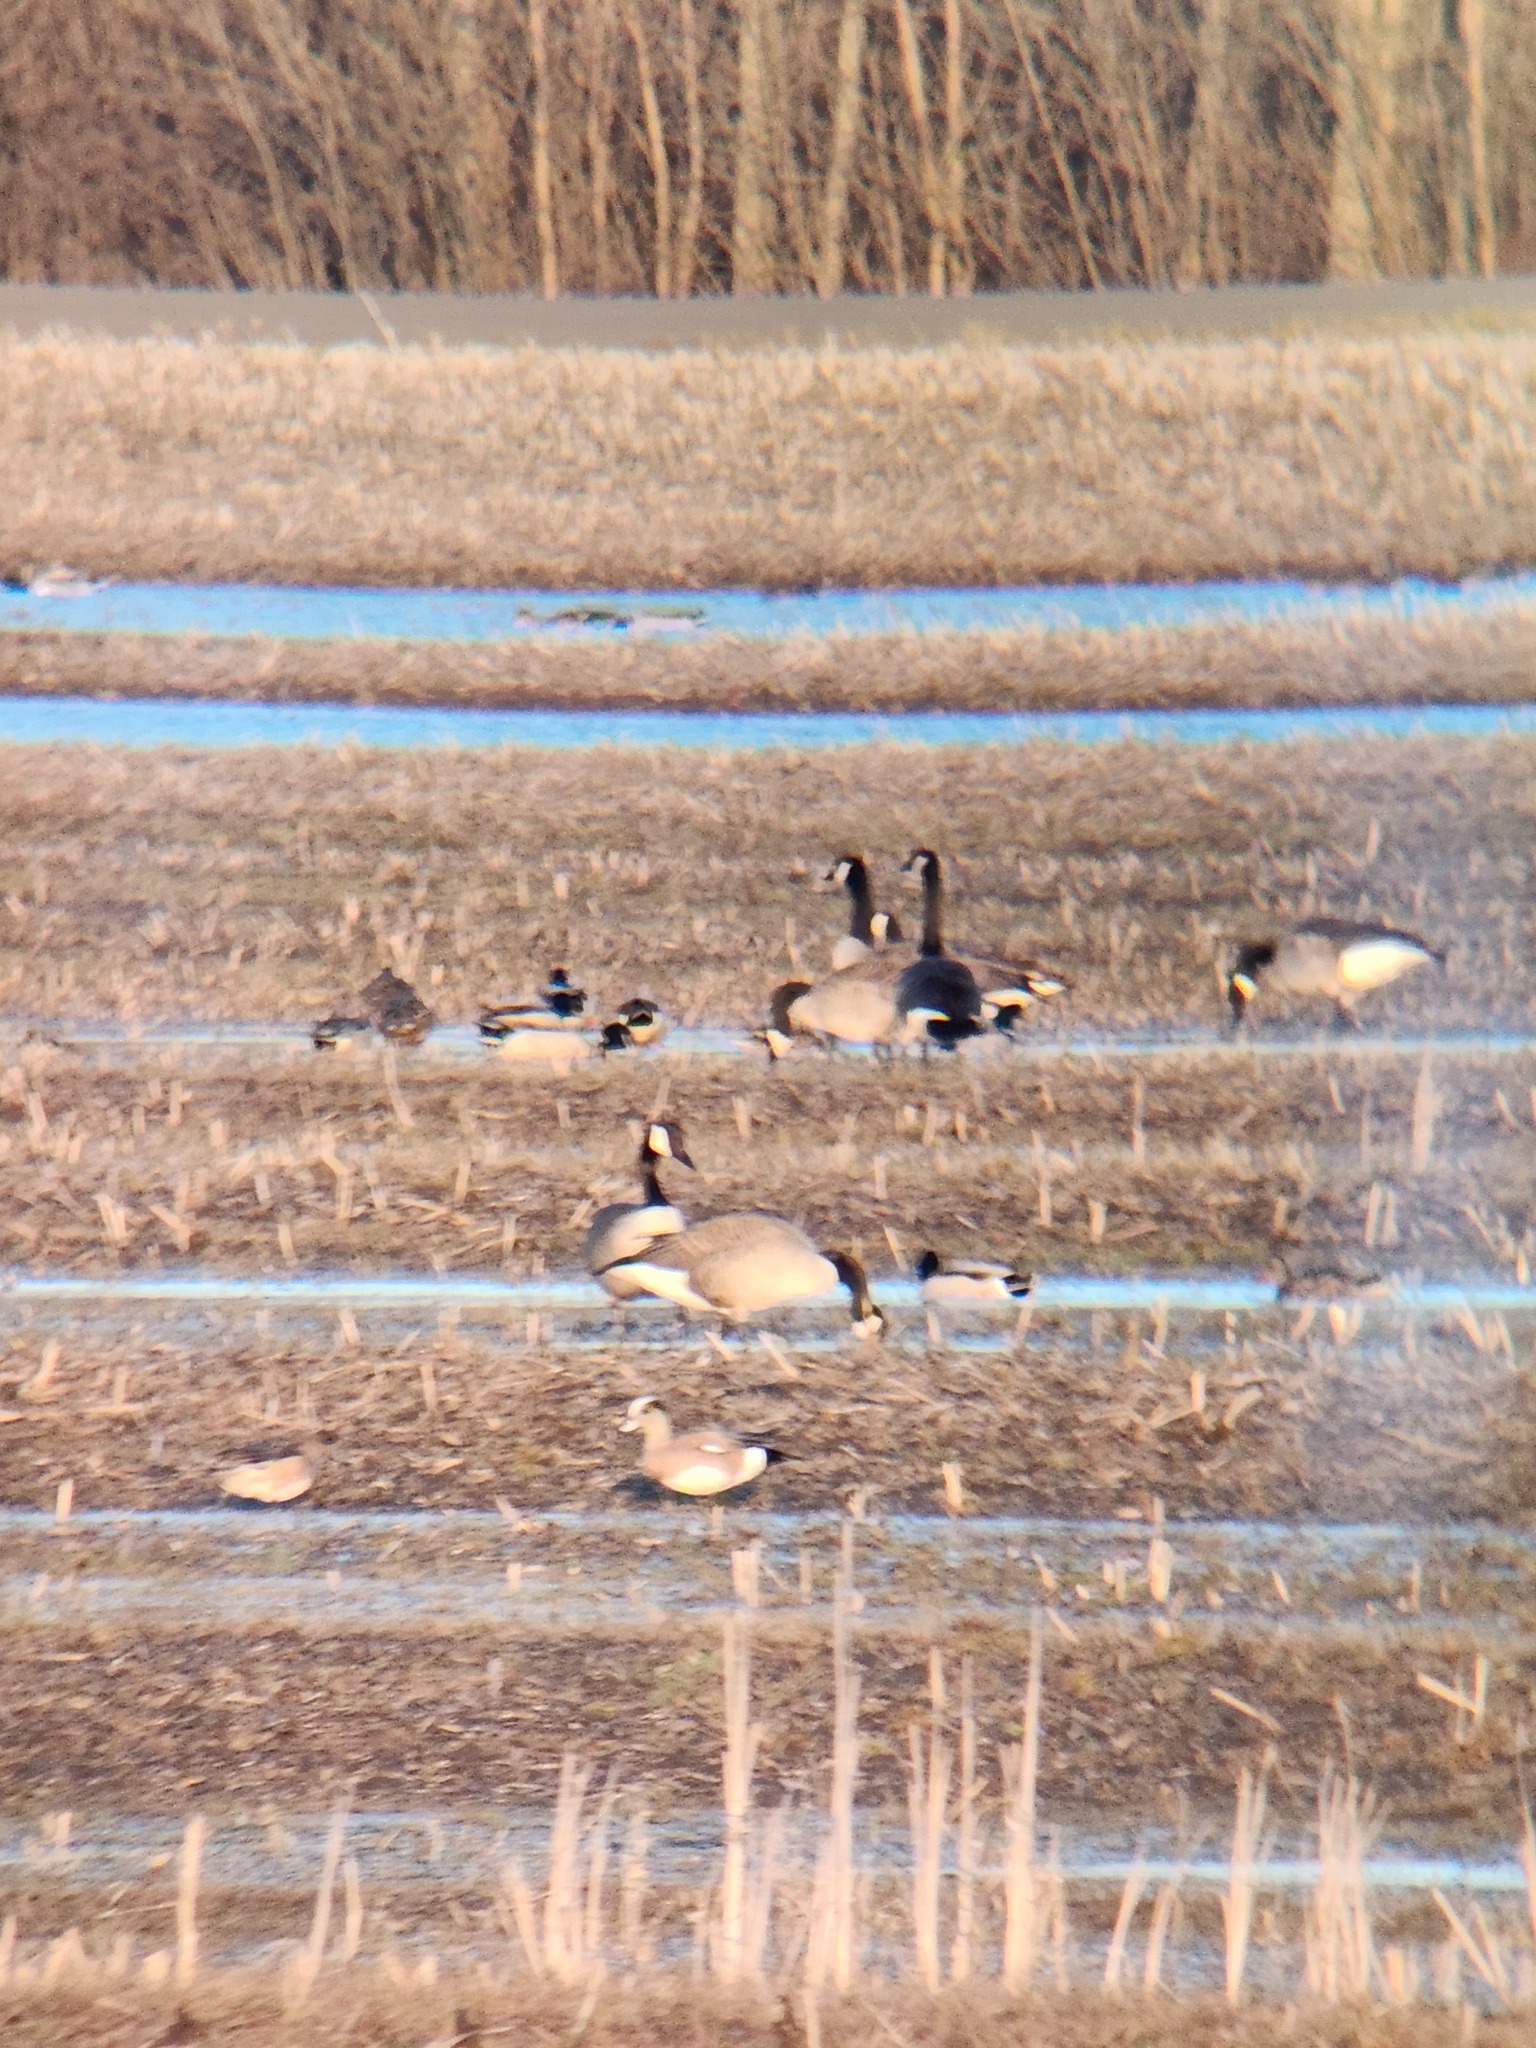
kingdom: Animalia
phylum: Chordata
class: Aves
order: Anseriformes
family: Anatidae
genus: Mareca
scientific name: Mareca americana
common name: American wigeon
